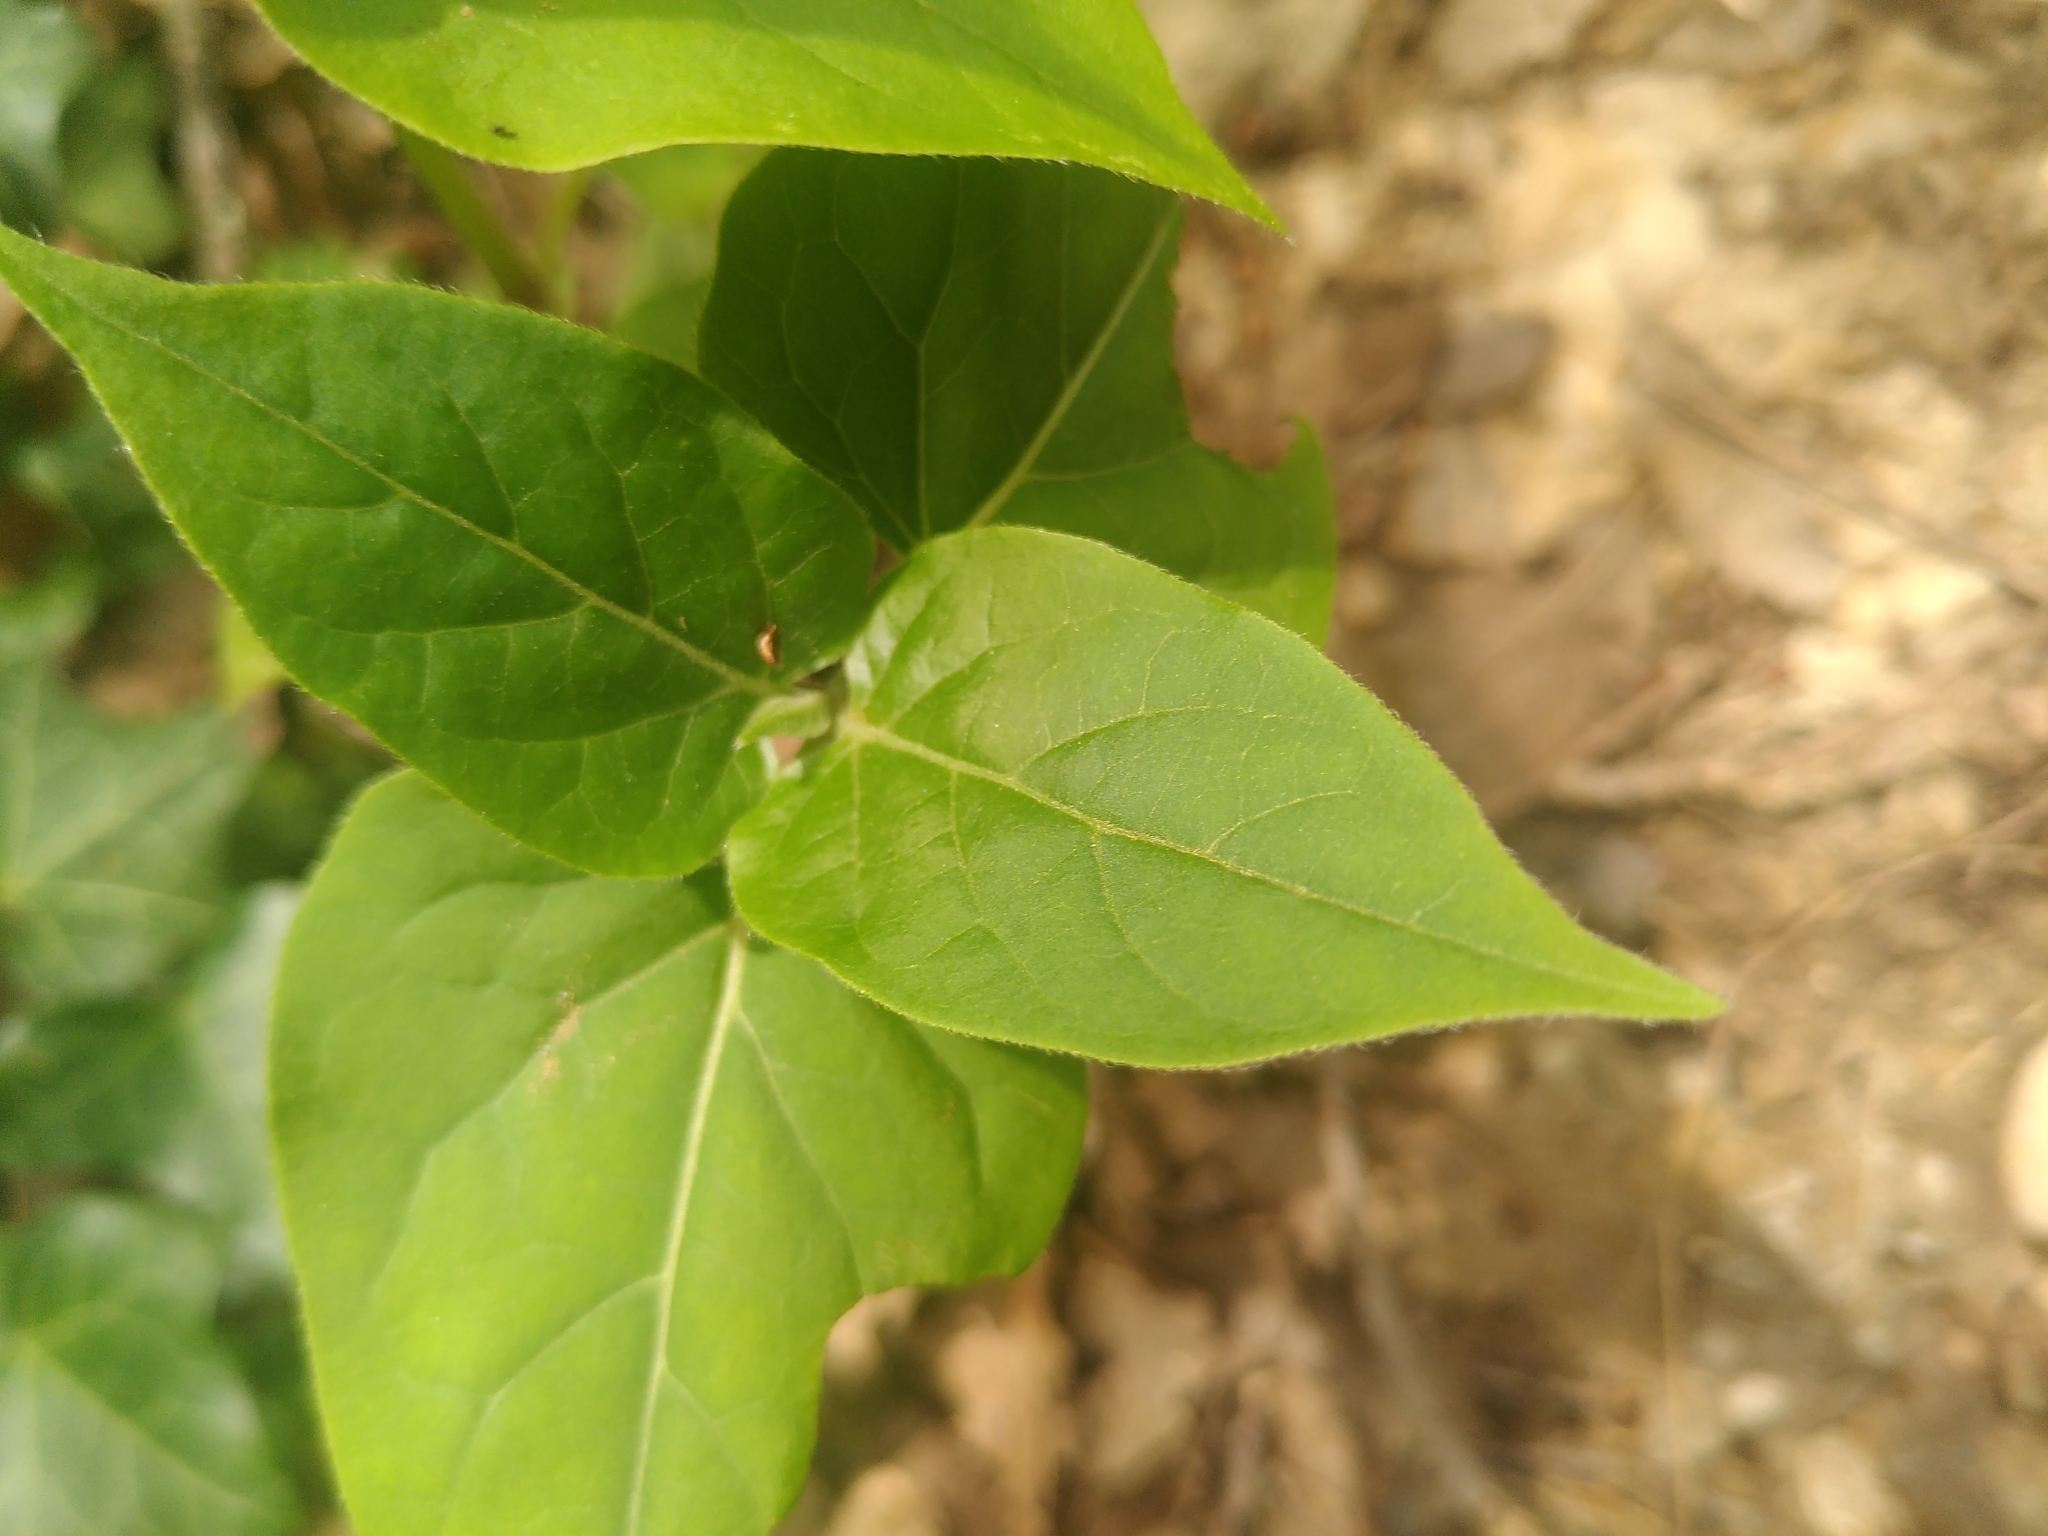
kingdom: Plantae
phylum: Tracheophyta
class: Magnoliopsida
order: Caryophyllales
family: Nyctaginaceae
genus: Mirabilis
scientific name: Mirabilis jalapa
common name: Marvel-of-peru
